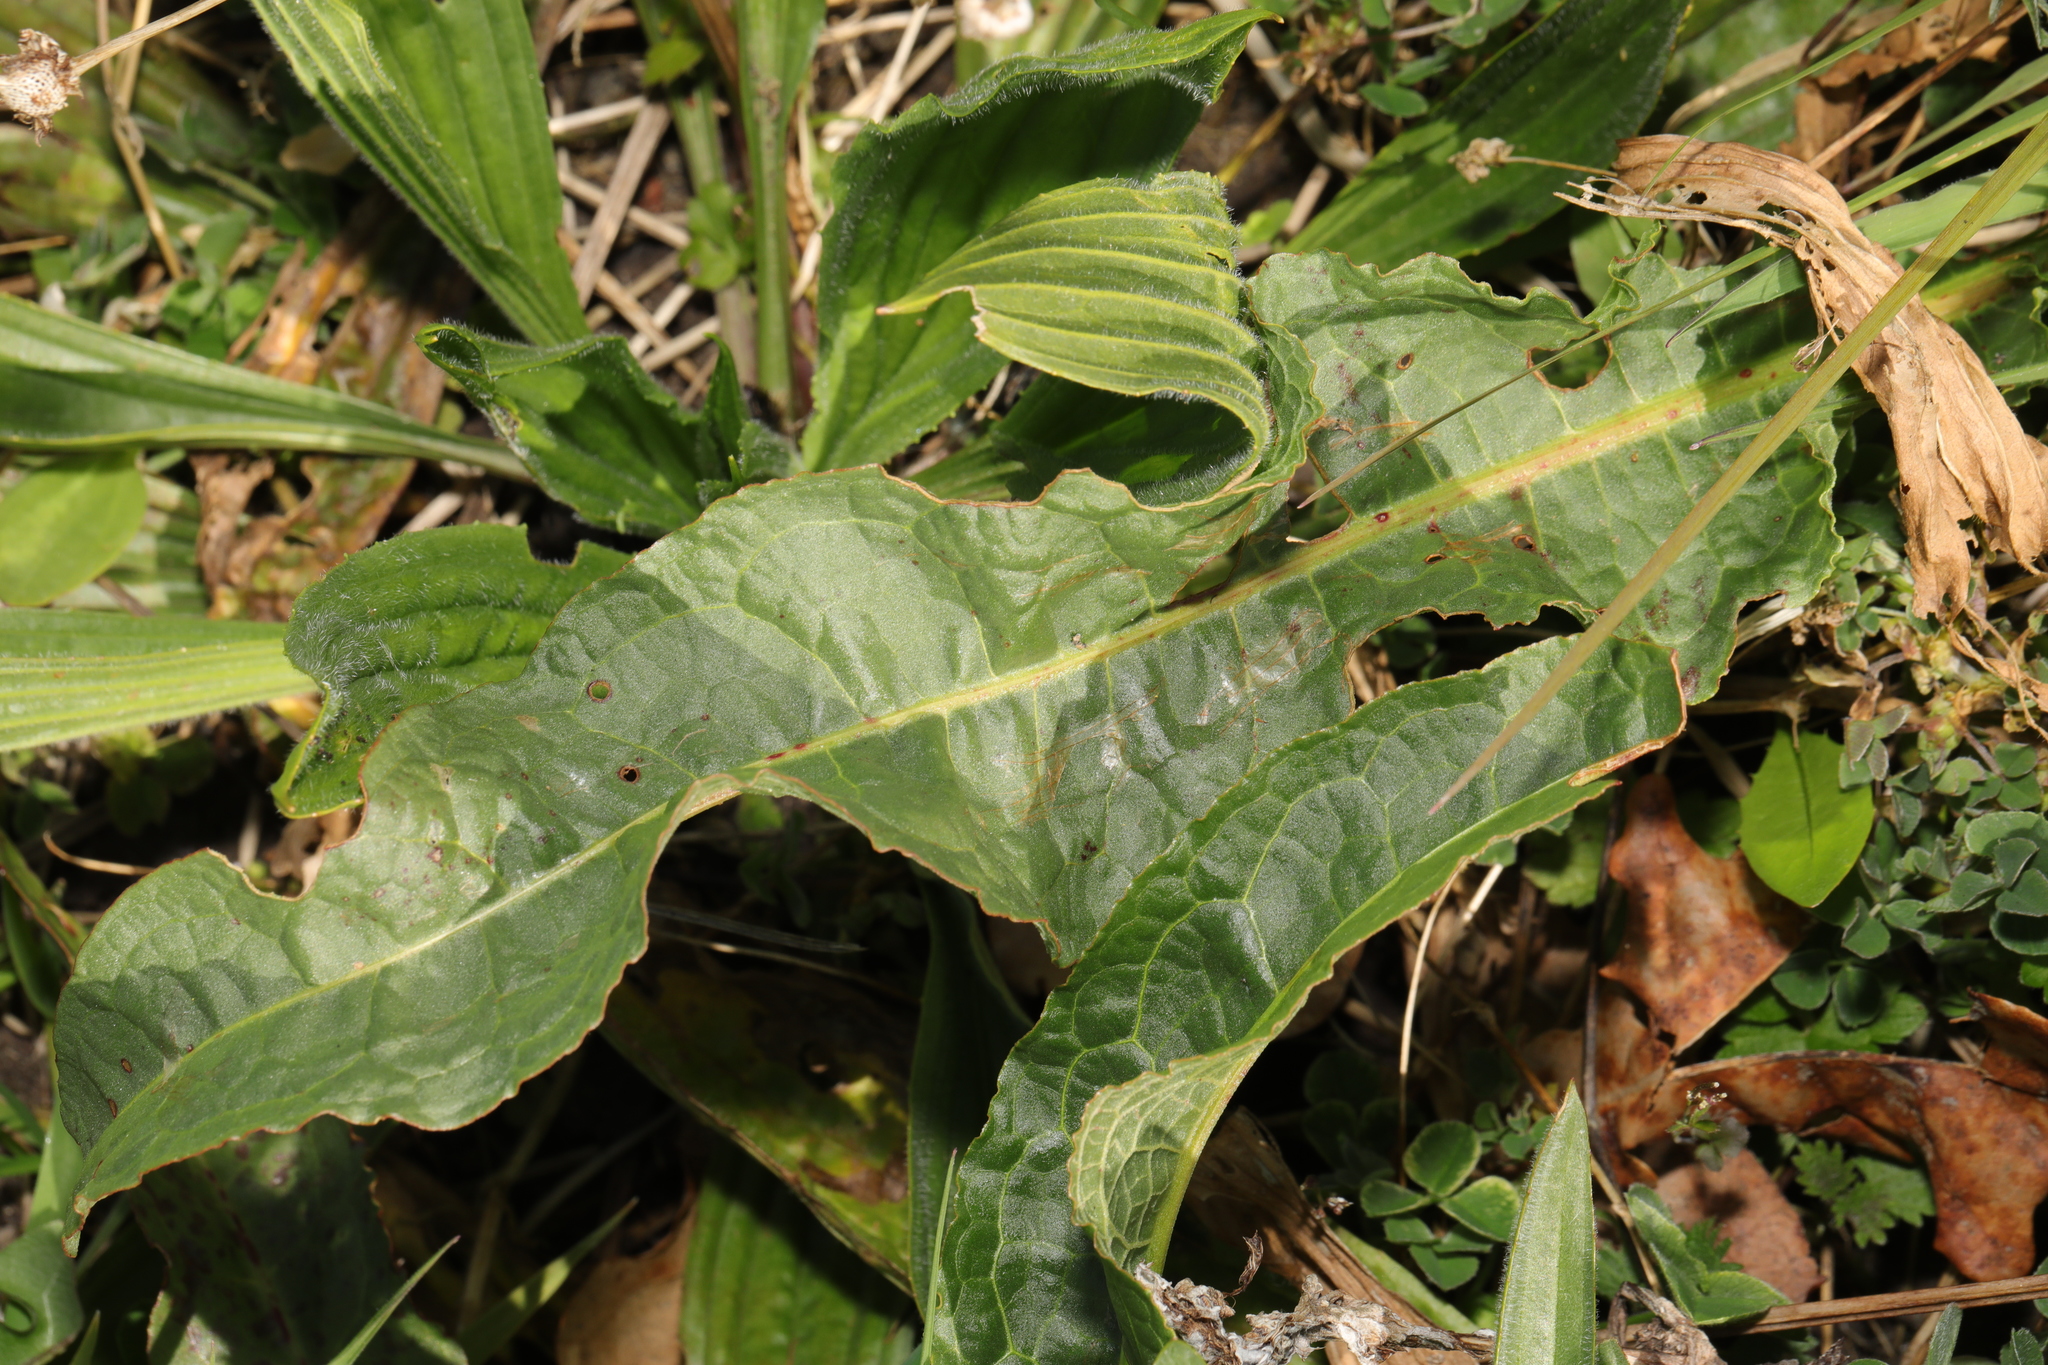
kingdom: Plantae
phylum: Tracheophyta
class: Magnoliopsida
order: Caryophyllales
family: Polygonaceae
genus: Rumex
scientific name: Rumex crispus
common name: Curled dock
